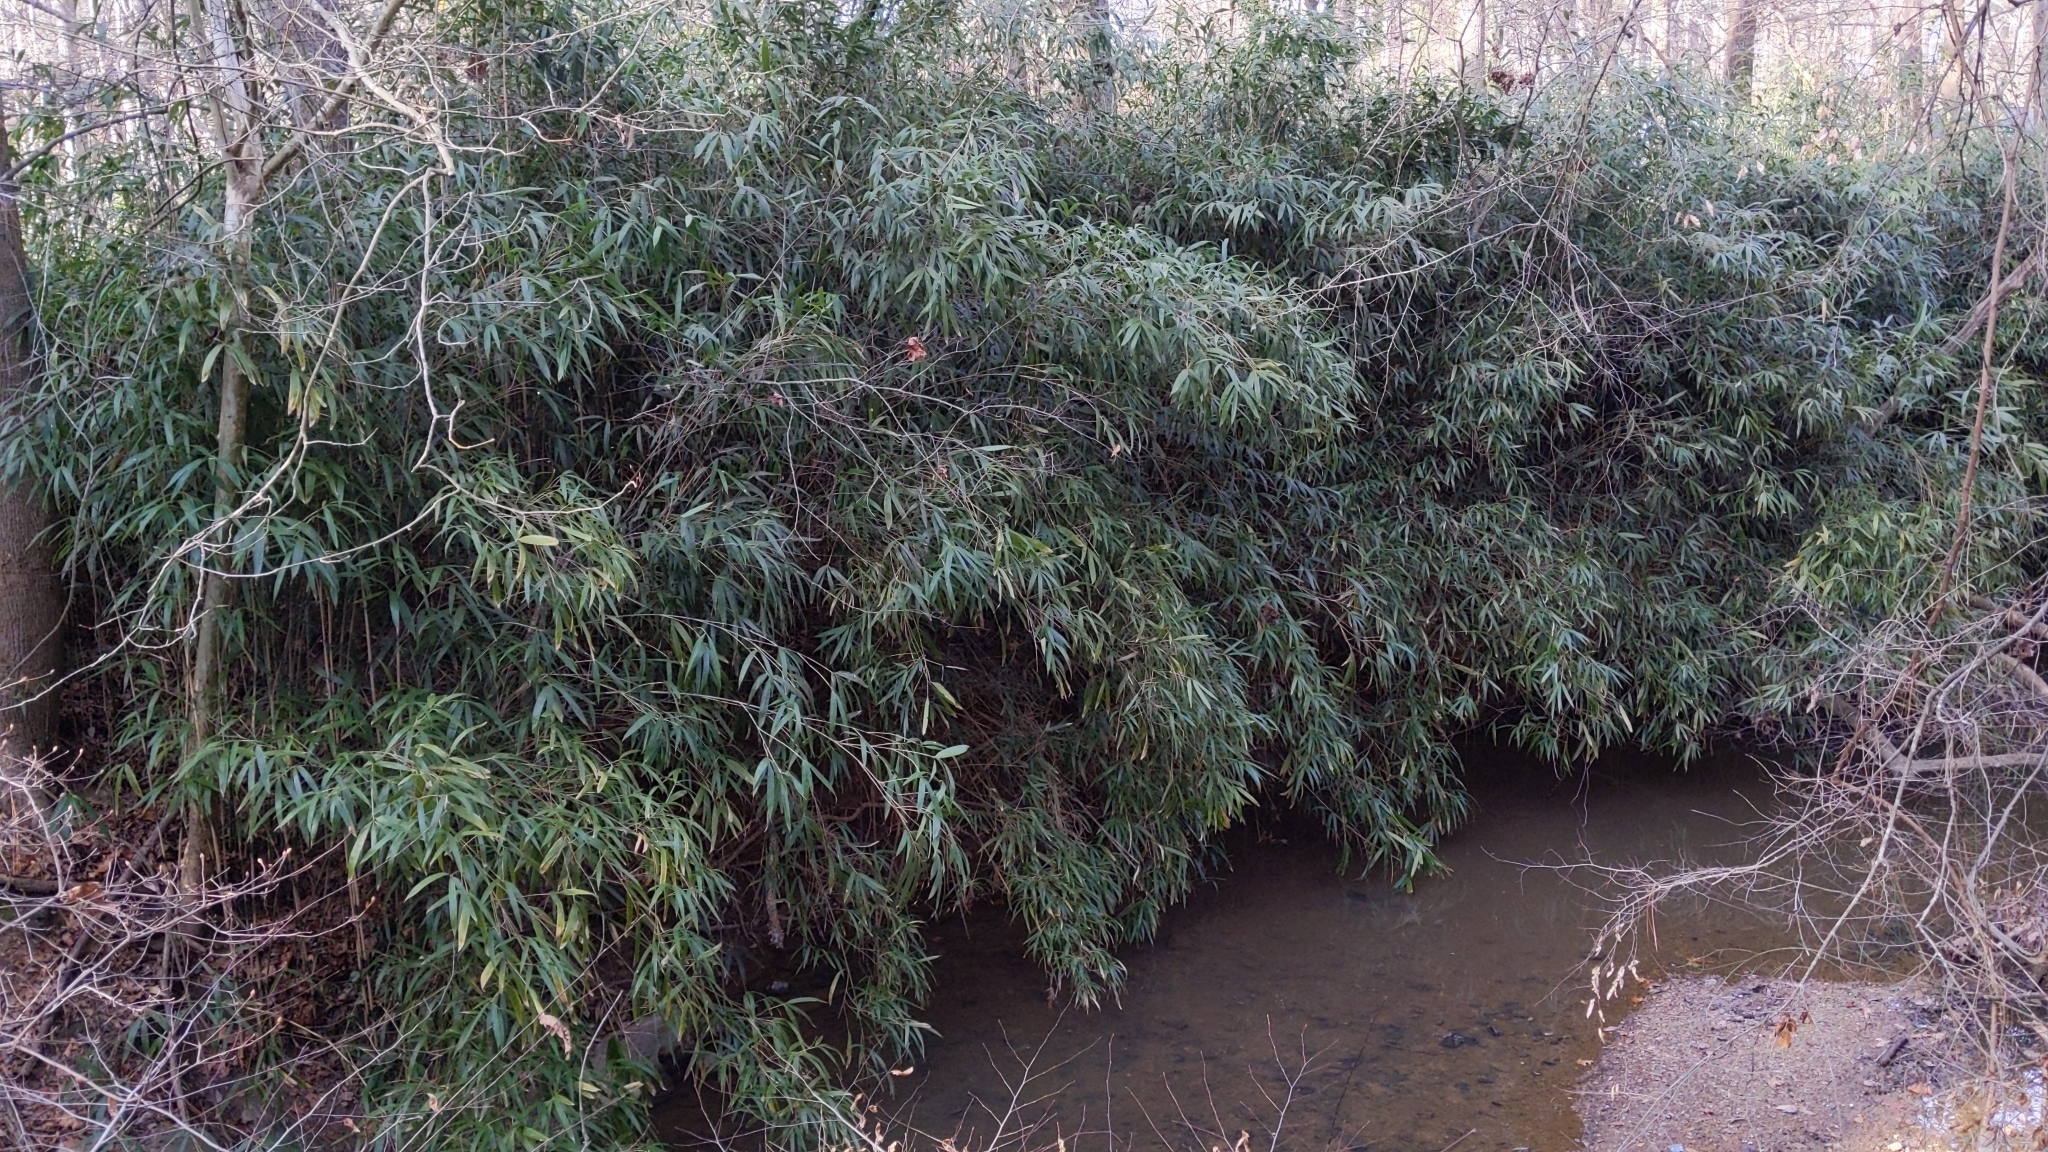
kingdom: Plantae
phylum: Tracheophyta
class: Liliopsida
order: Poales
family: Poaceae
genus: Arundinaria
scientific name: Arundinaria gigantea
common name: Giant cane
